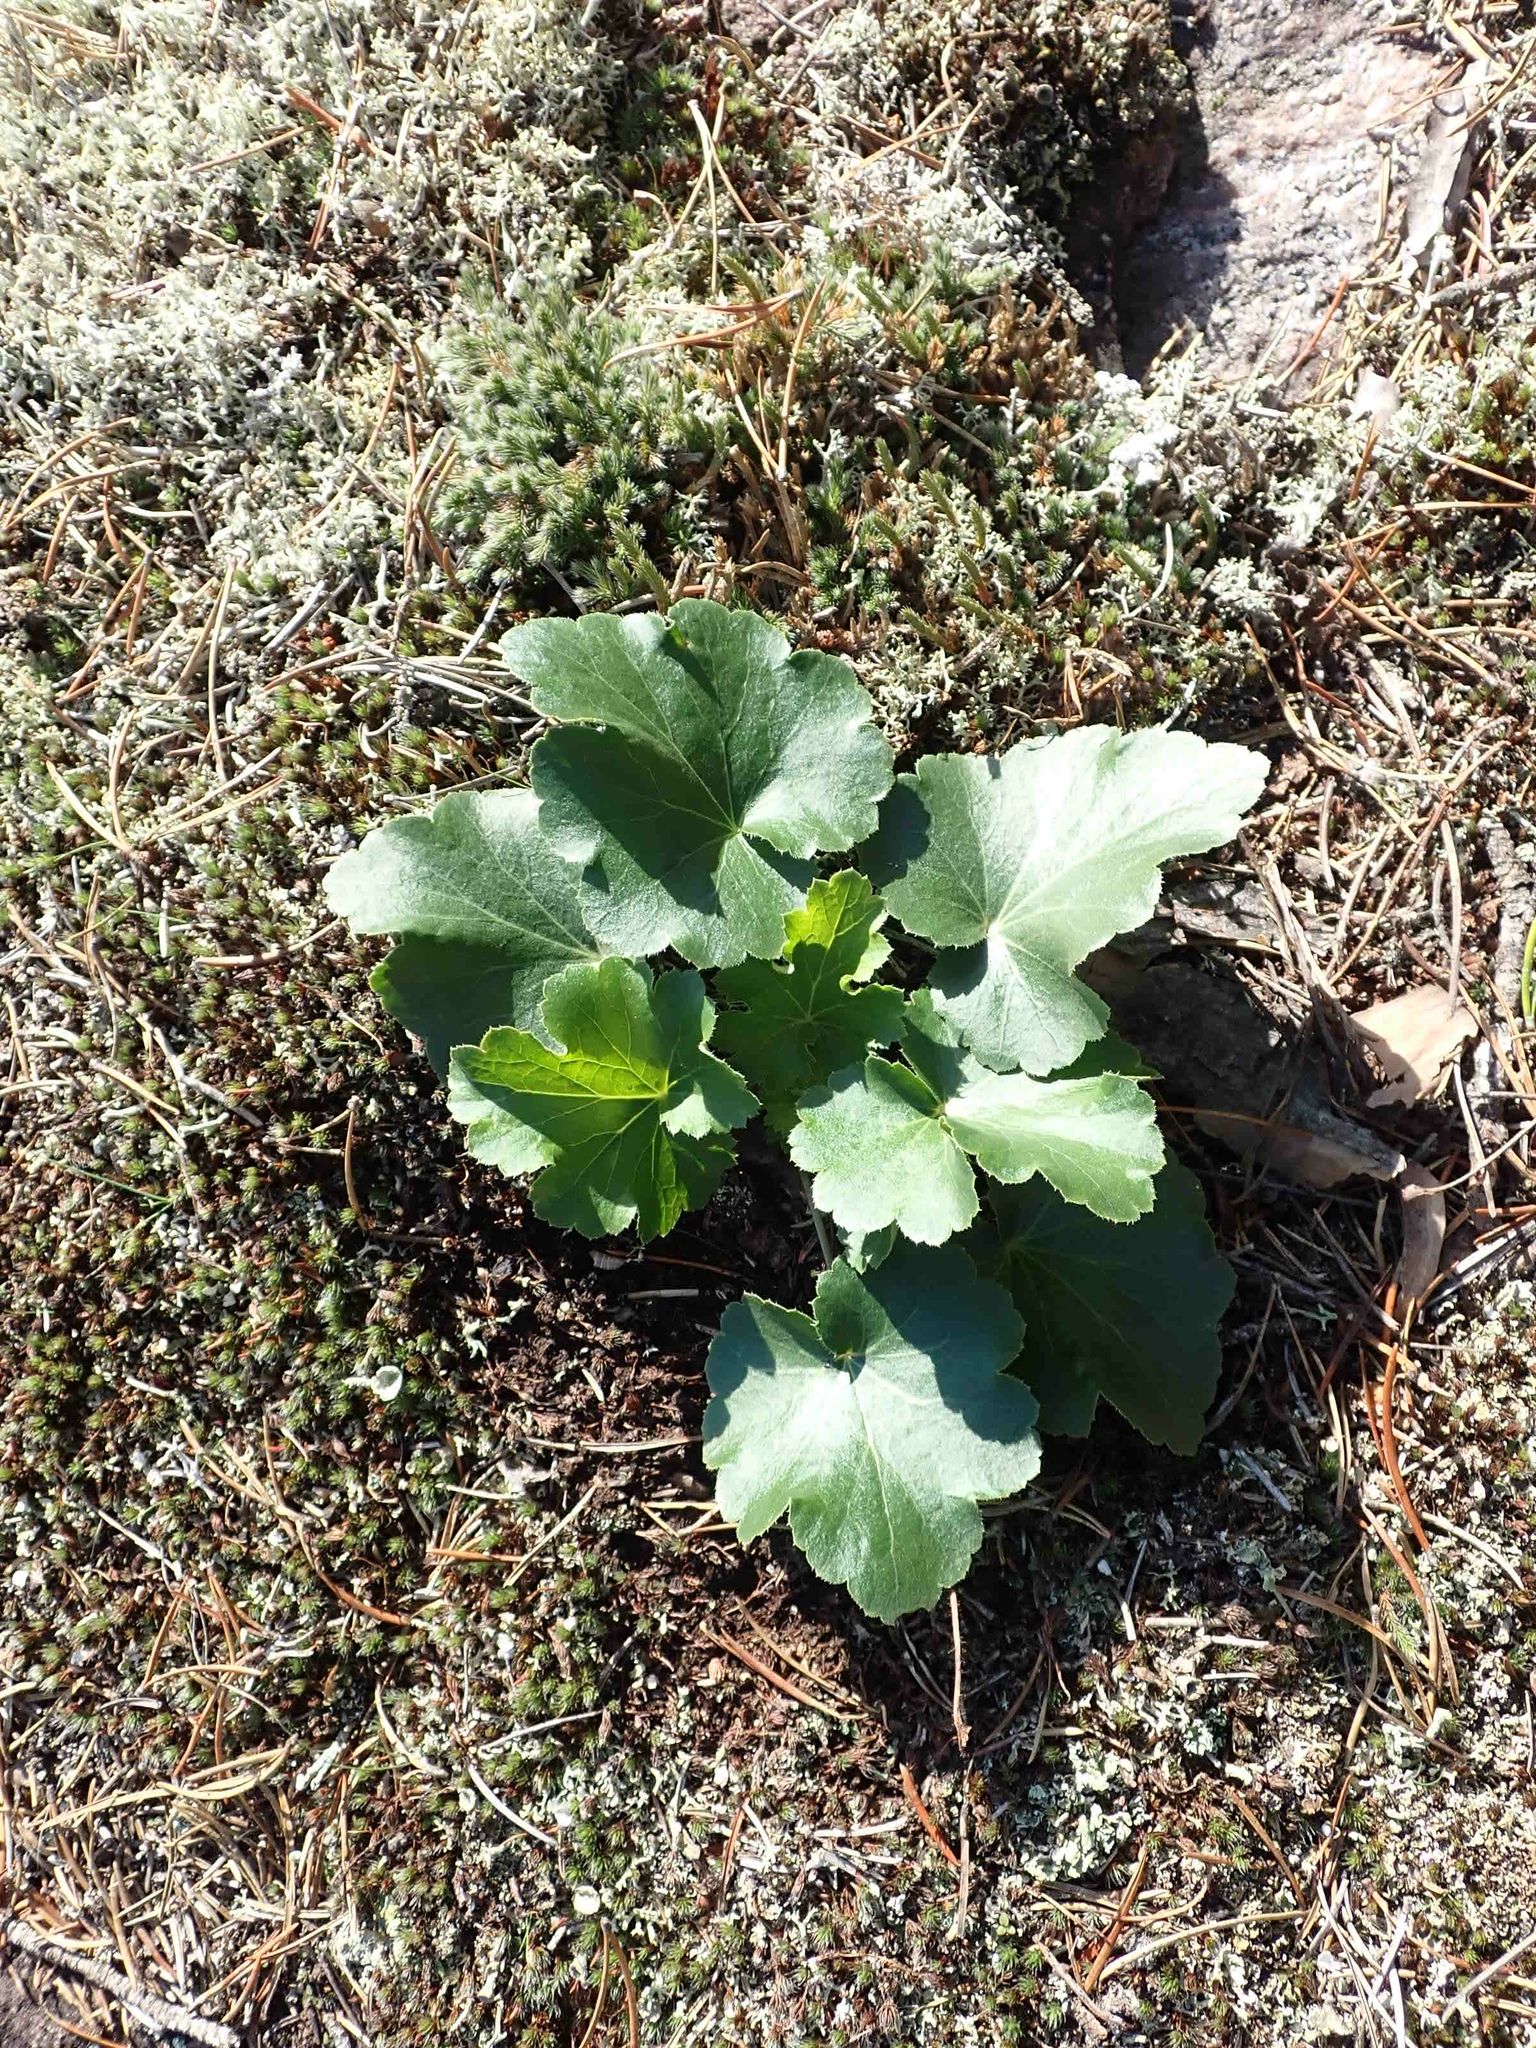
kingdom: Plantae
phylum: Tracheophyta
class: Magnoliopsida
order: Saxifragales
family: Saxifragaceae
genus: Heuchera
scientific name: Heuchera richardsonii
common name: Richardson's alumroot
